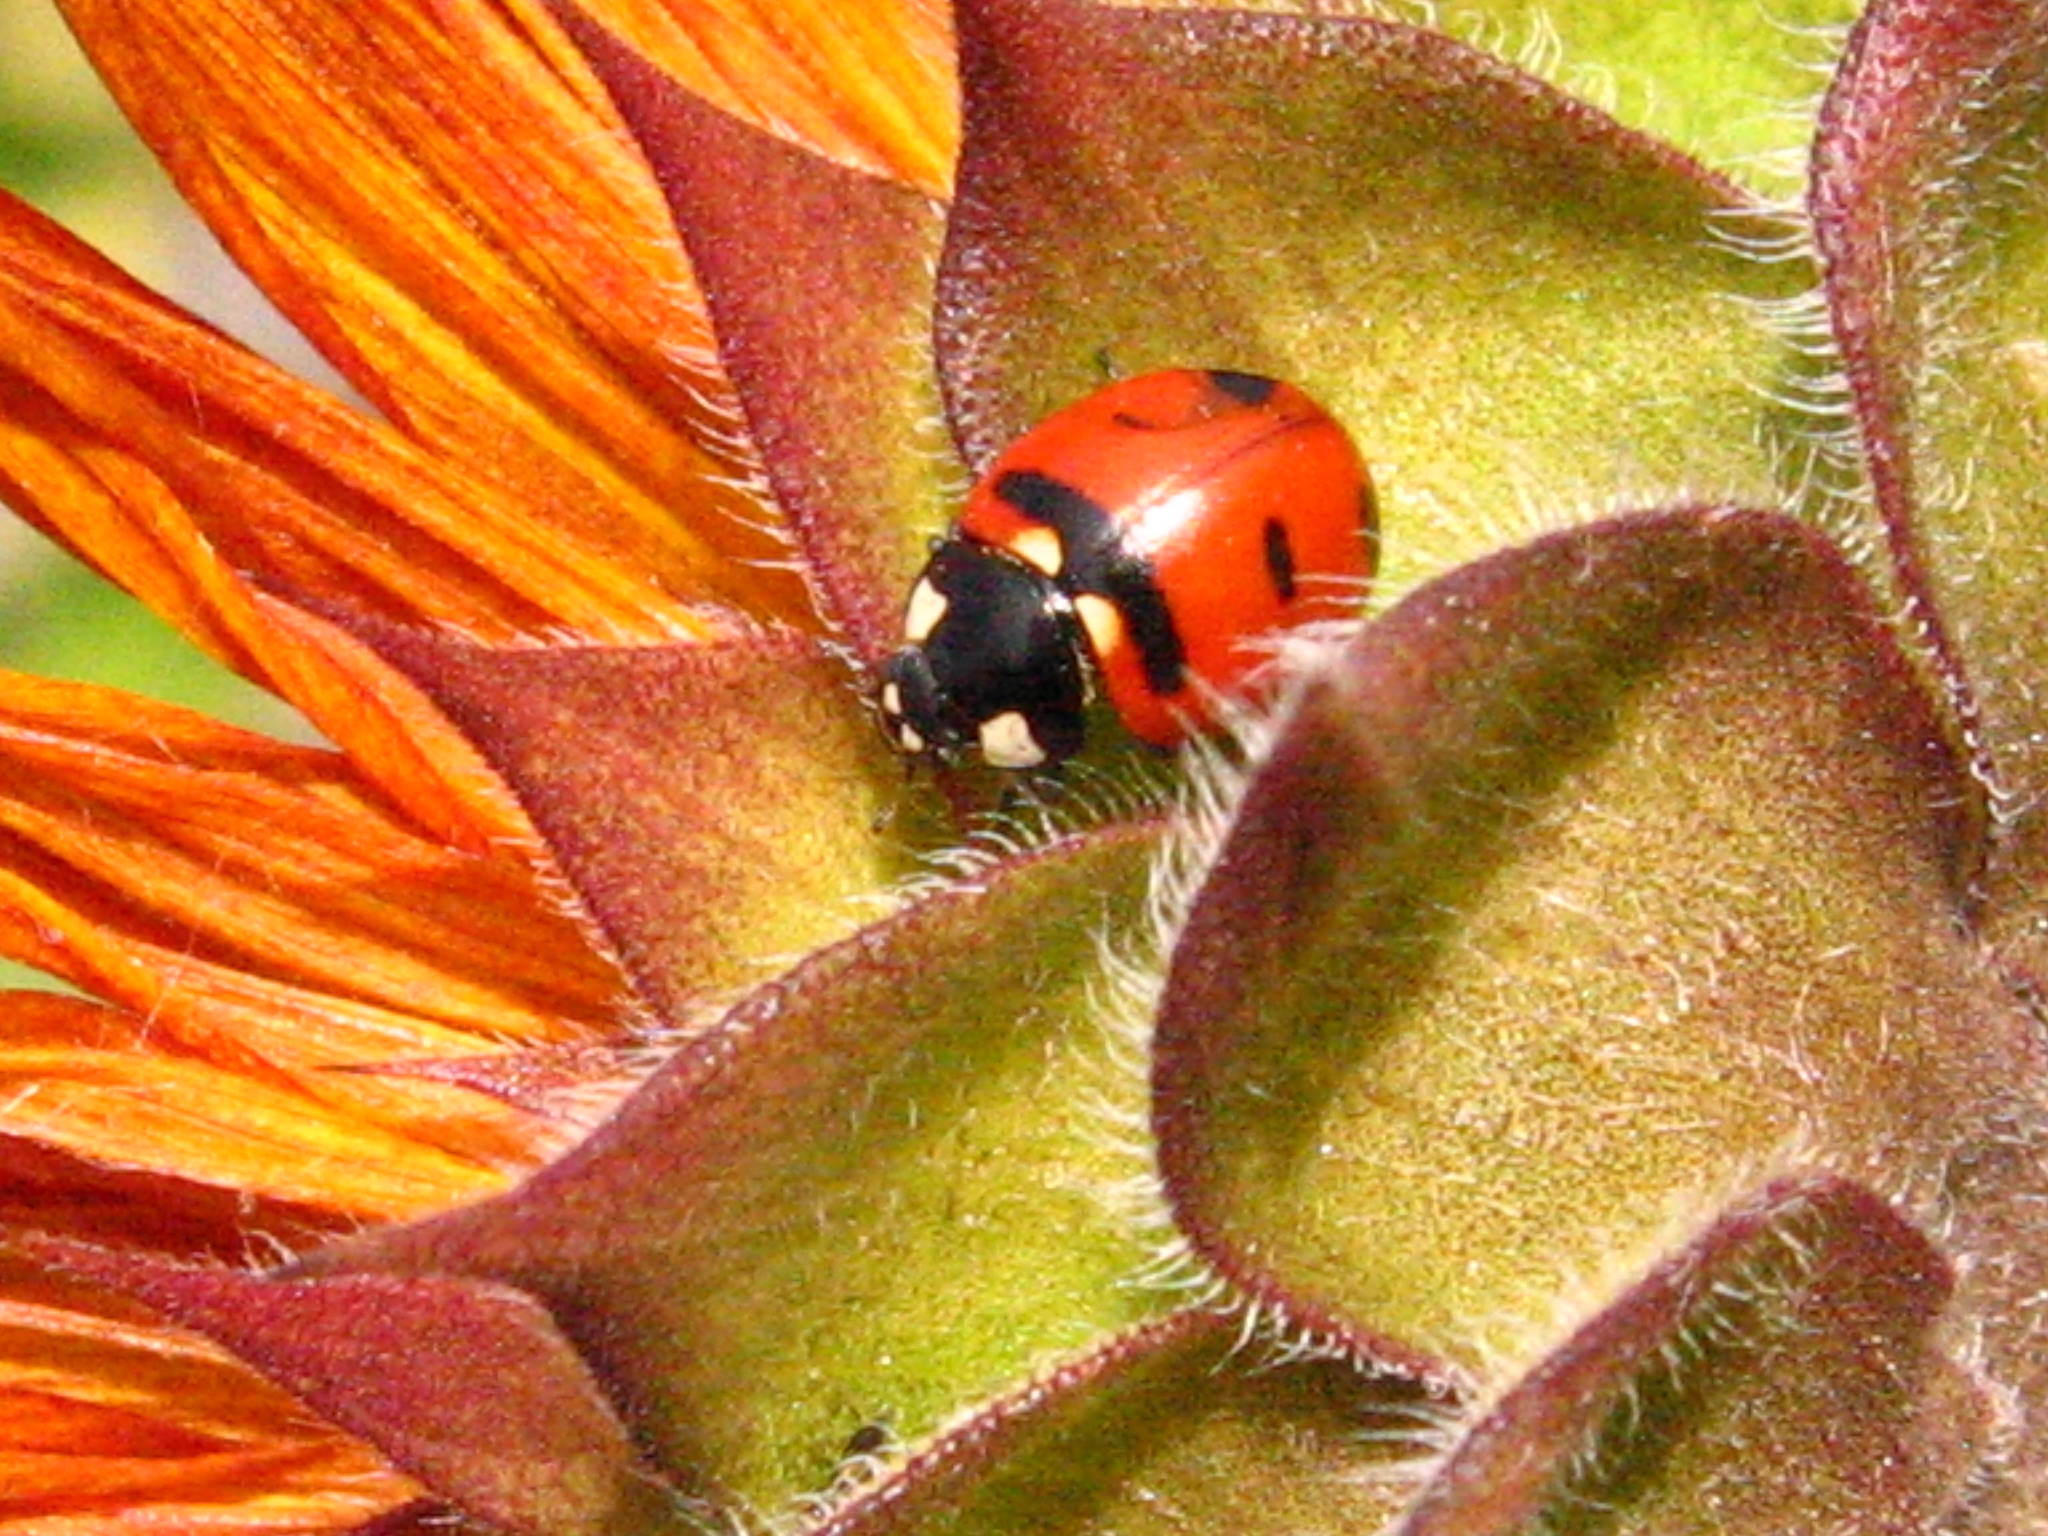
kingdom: Animalia
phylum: Arthropoda
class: Insecta
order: Coleoptera
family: Coccinellidae
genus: Coccinella
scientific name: Coccinella transversoguttata
